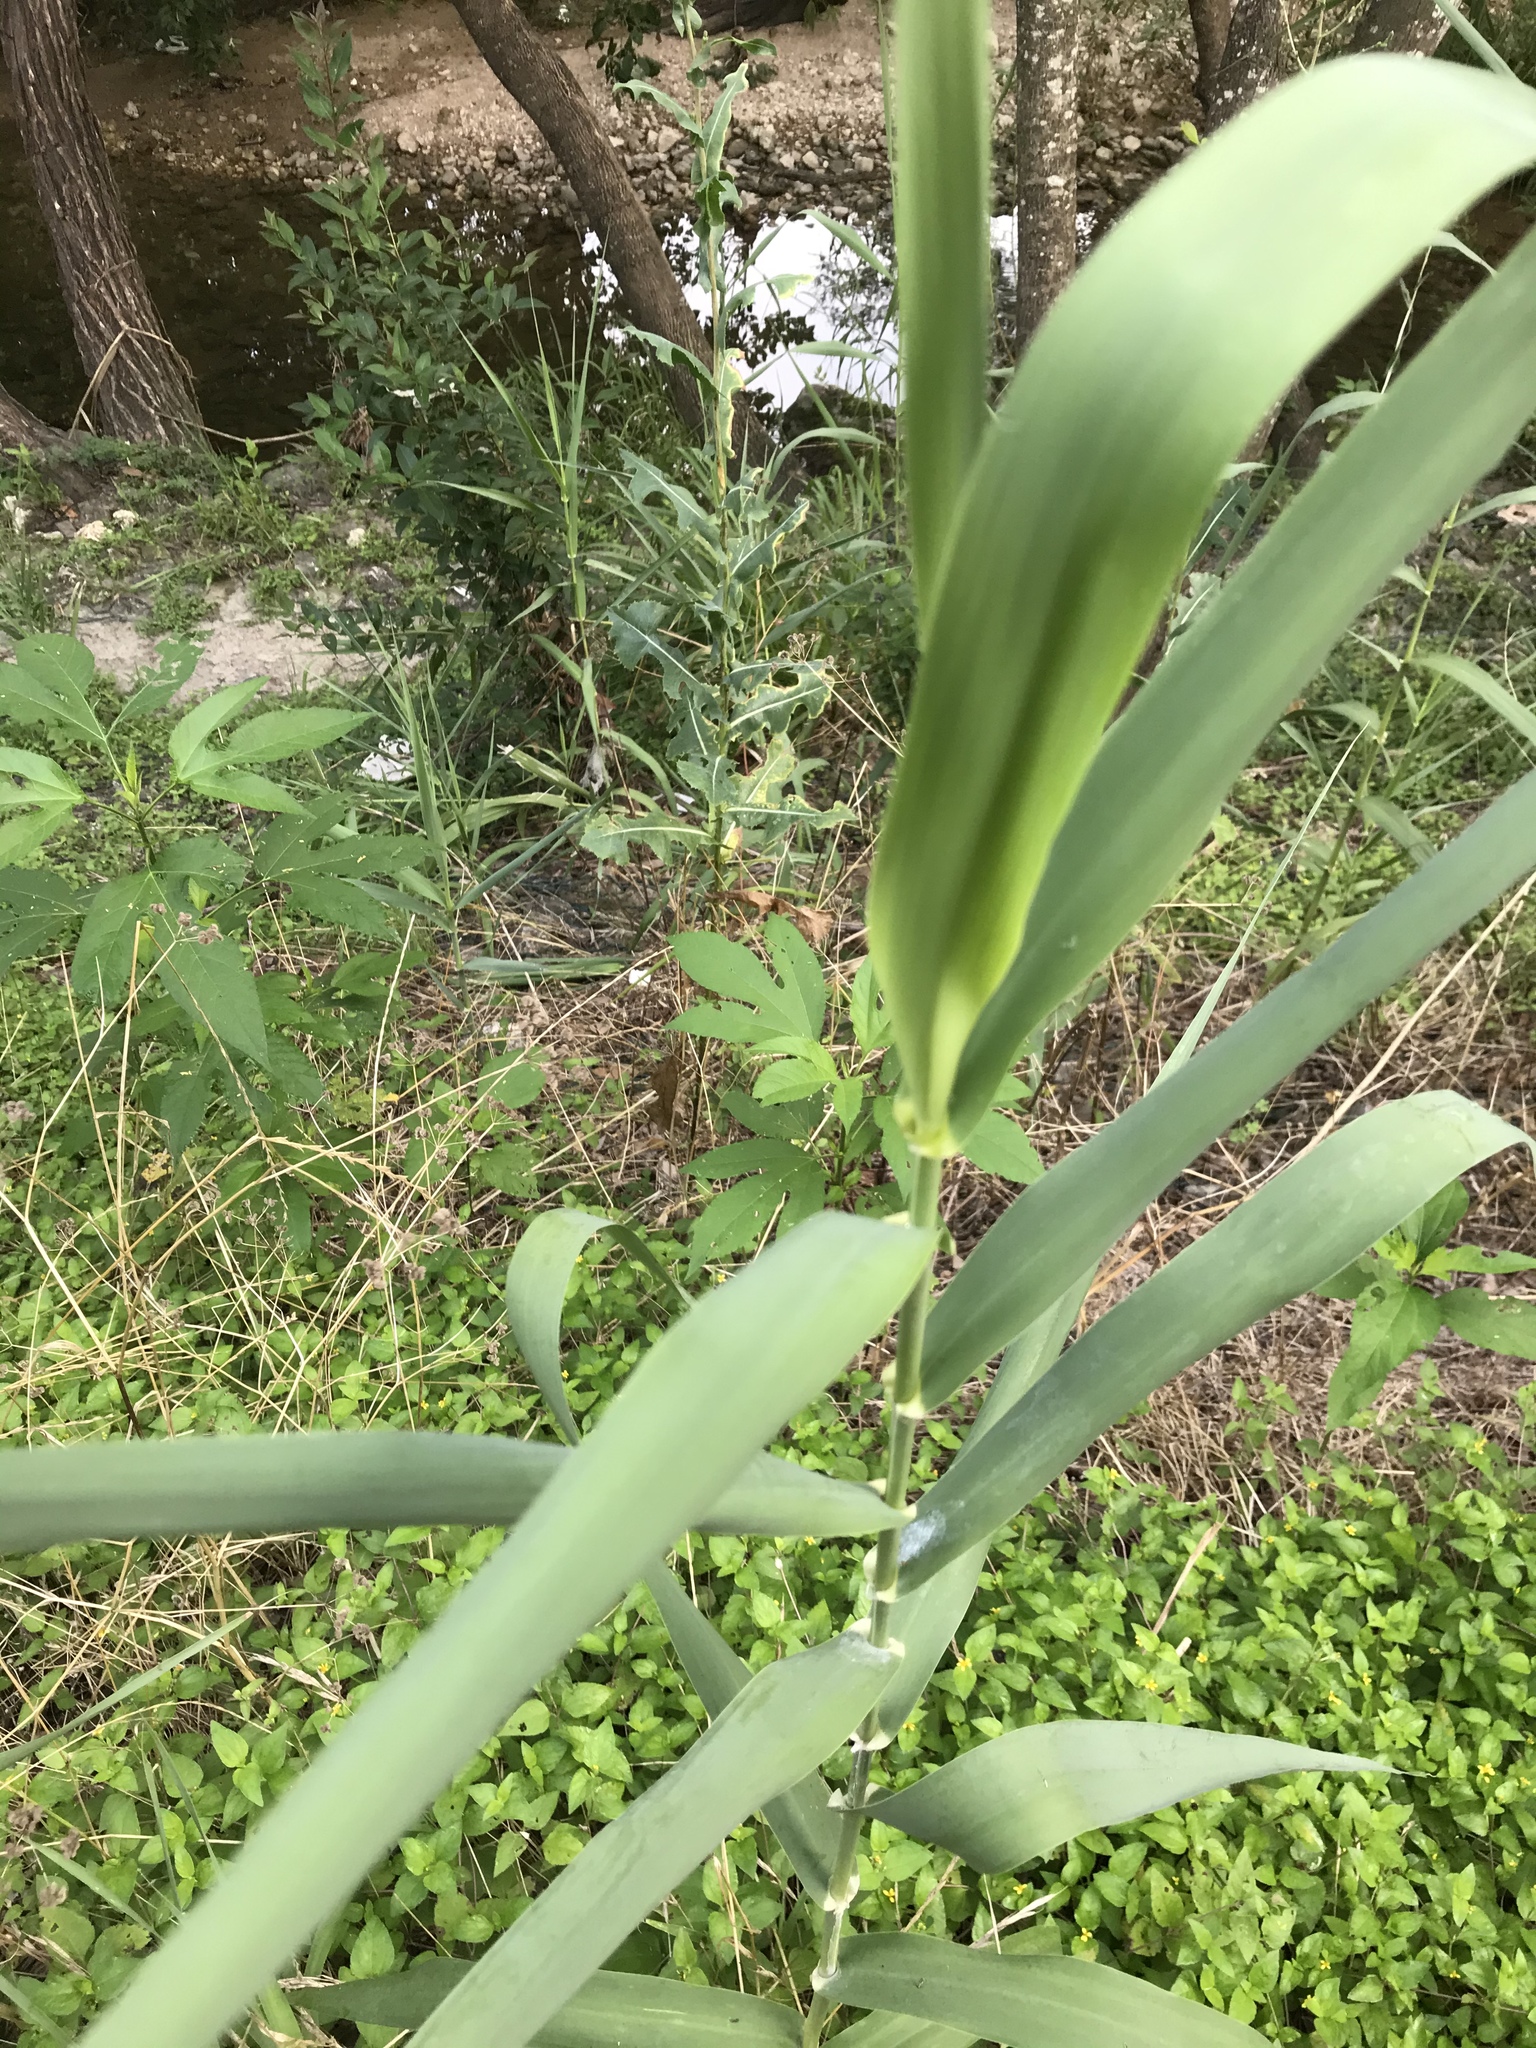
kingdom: Plantae
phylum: Tracheophyta
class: Liliopsida
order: Poales
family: Poaceae
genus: Arundo
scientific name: Arundo donax
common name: Giant reed
